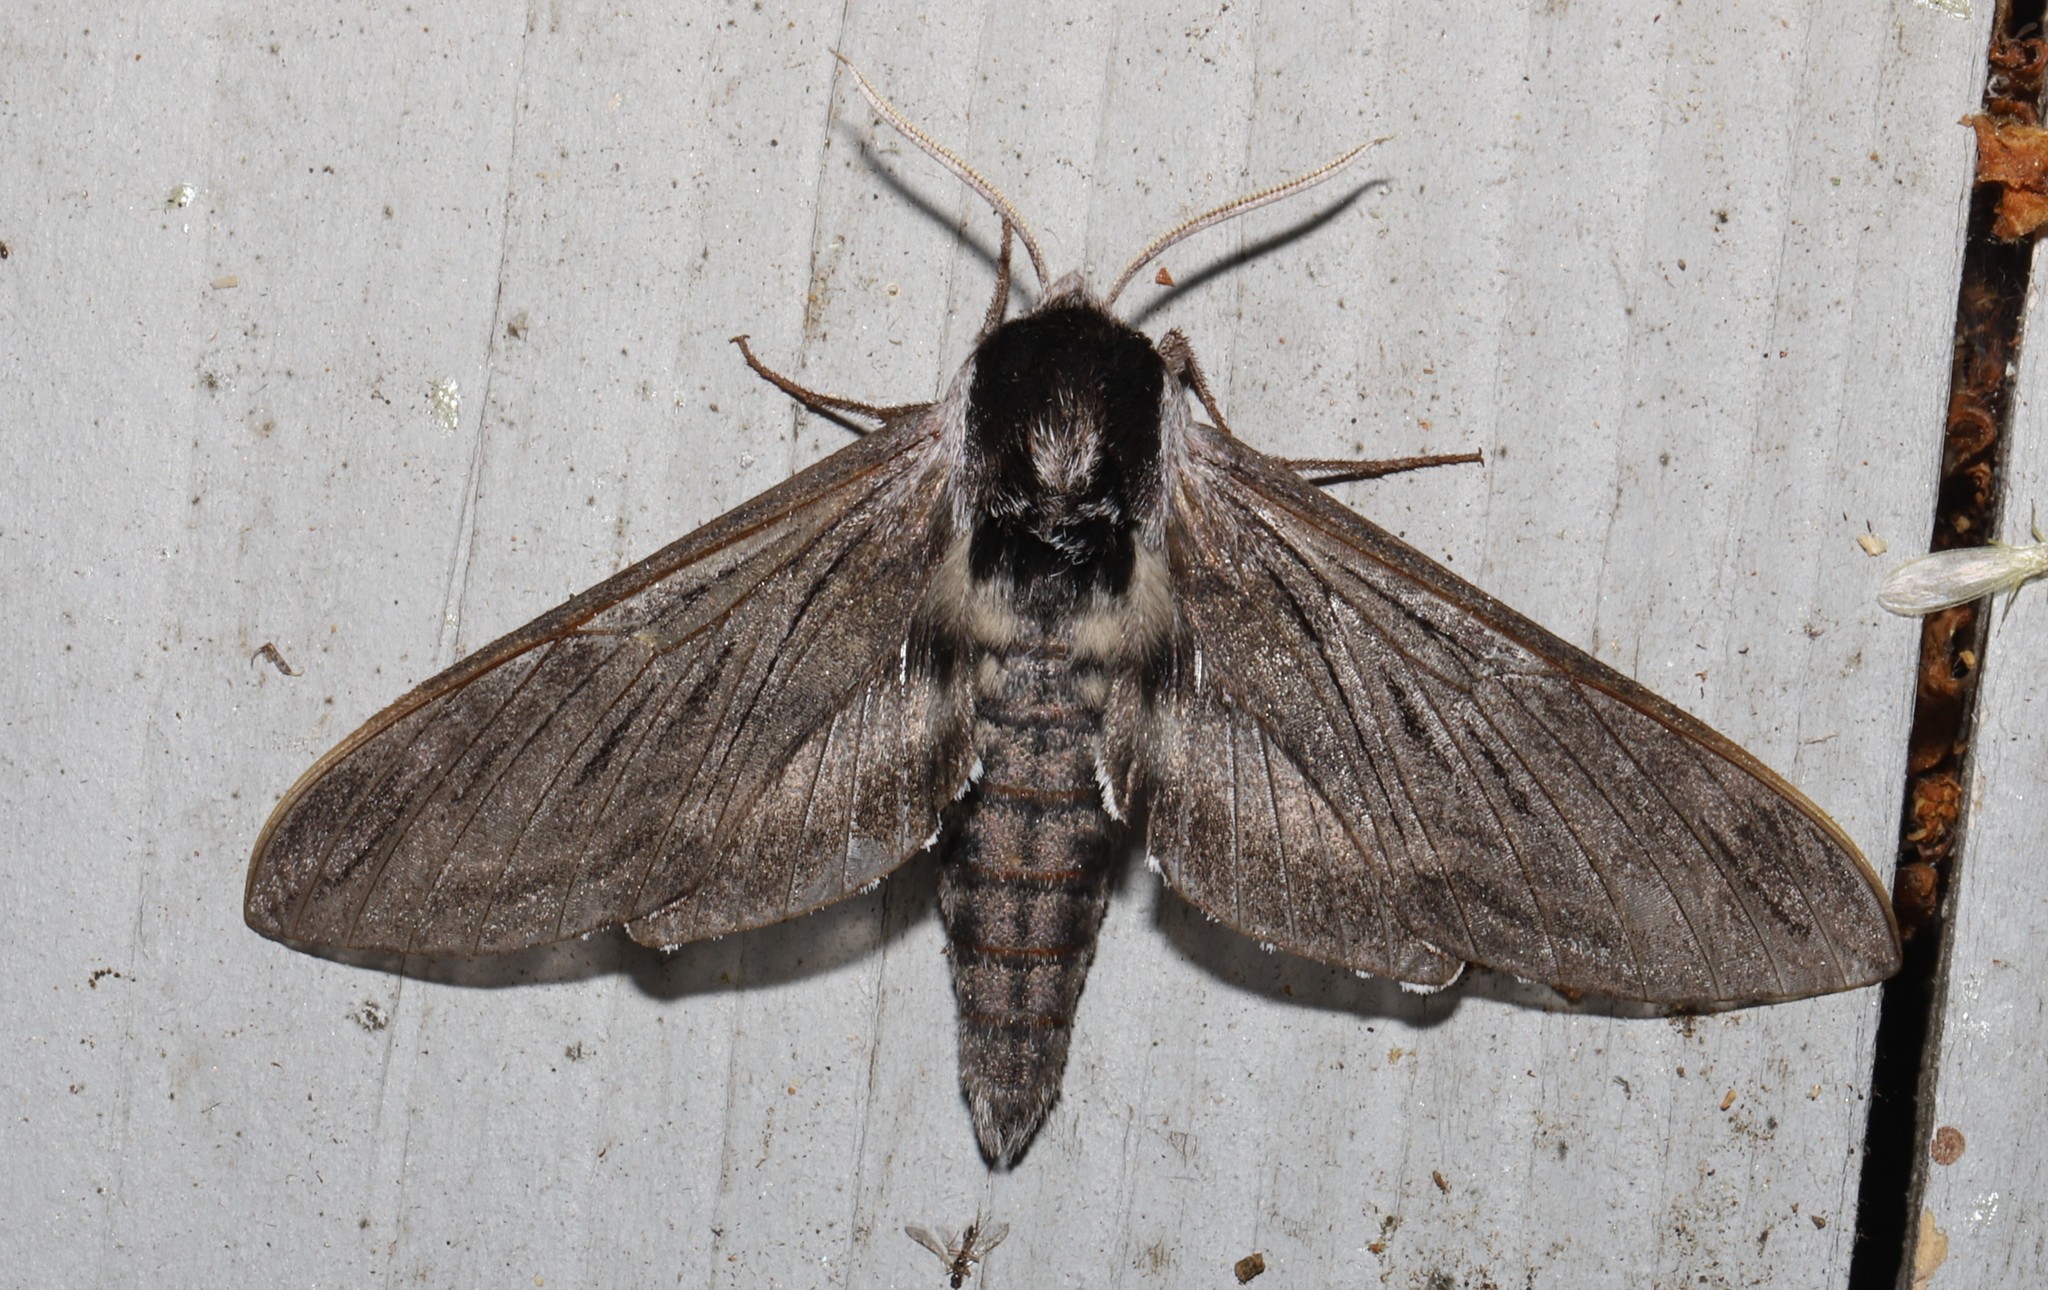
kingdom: Animalia
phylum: Arthropoda
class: Insecta
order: Lepidoptera
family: Sphingidae
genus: Sphinx
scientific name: Sphinx poecila
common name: Northern apple sphinx
